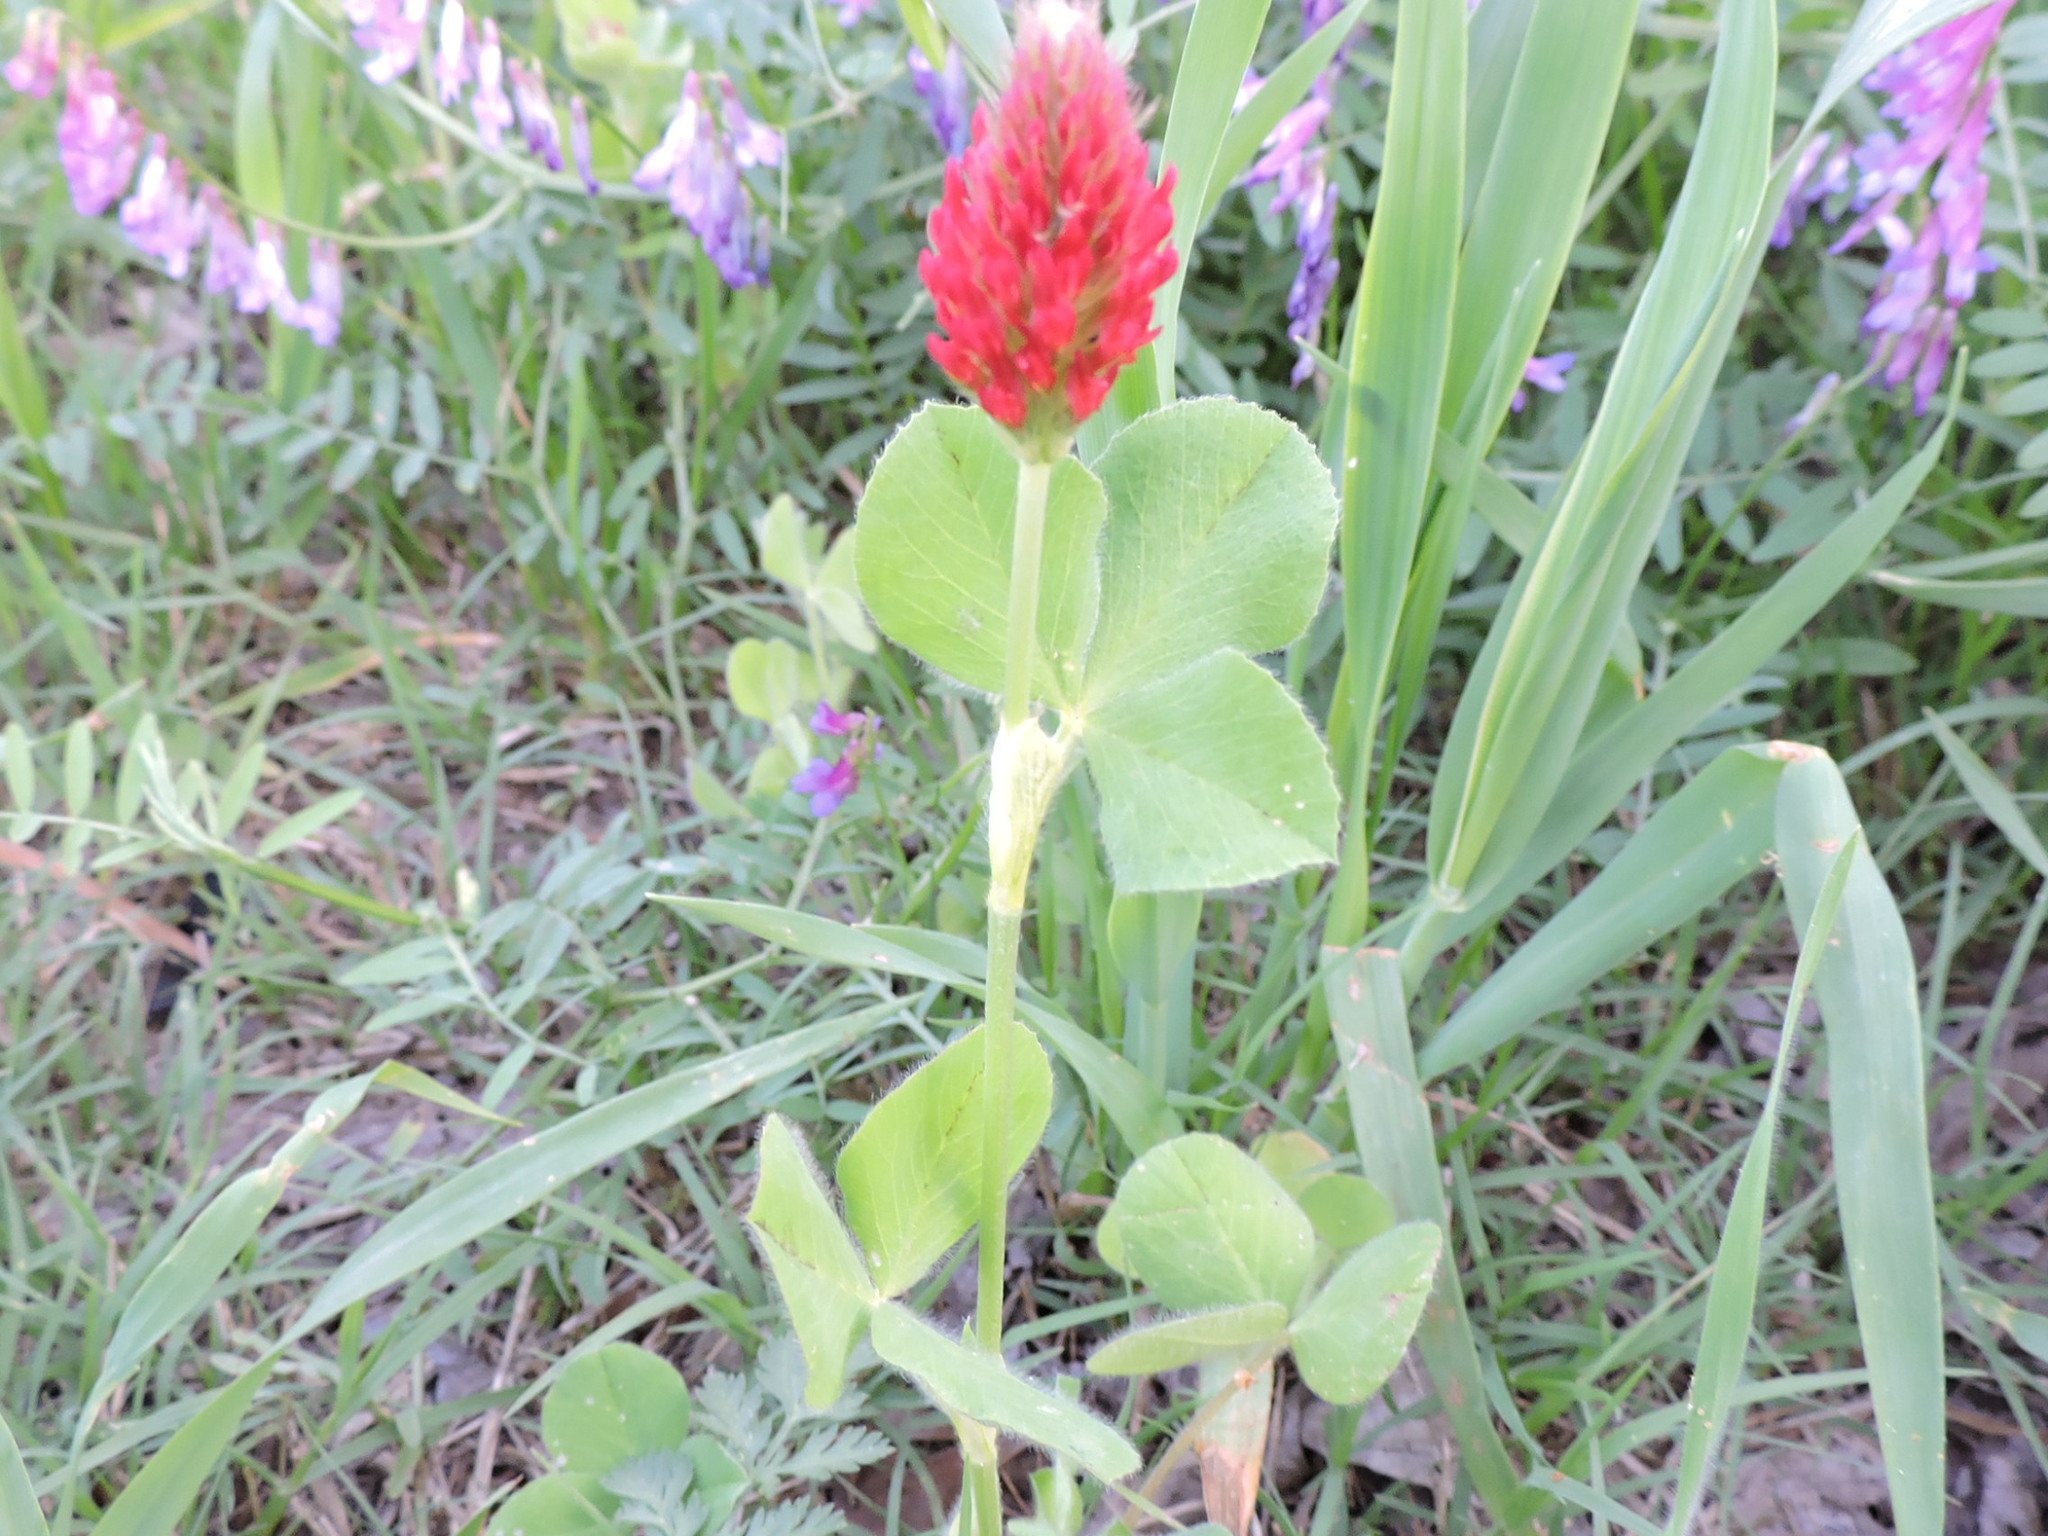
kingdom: Plantae
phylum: Tracheophyta
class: Magnoliopsida
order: Fabales
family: Fabaceae
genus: Trifolium
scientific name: Trifolium incarnatum
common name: Crimson clover
